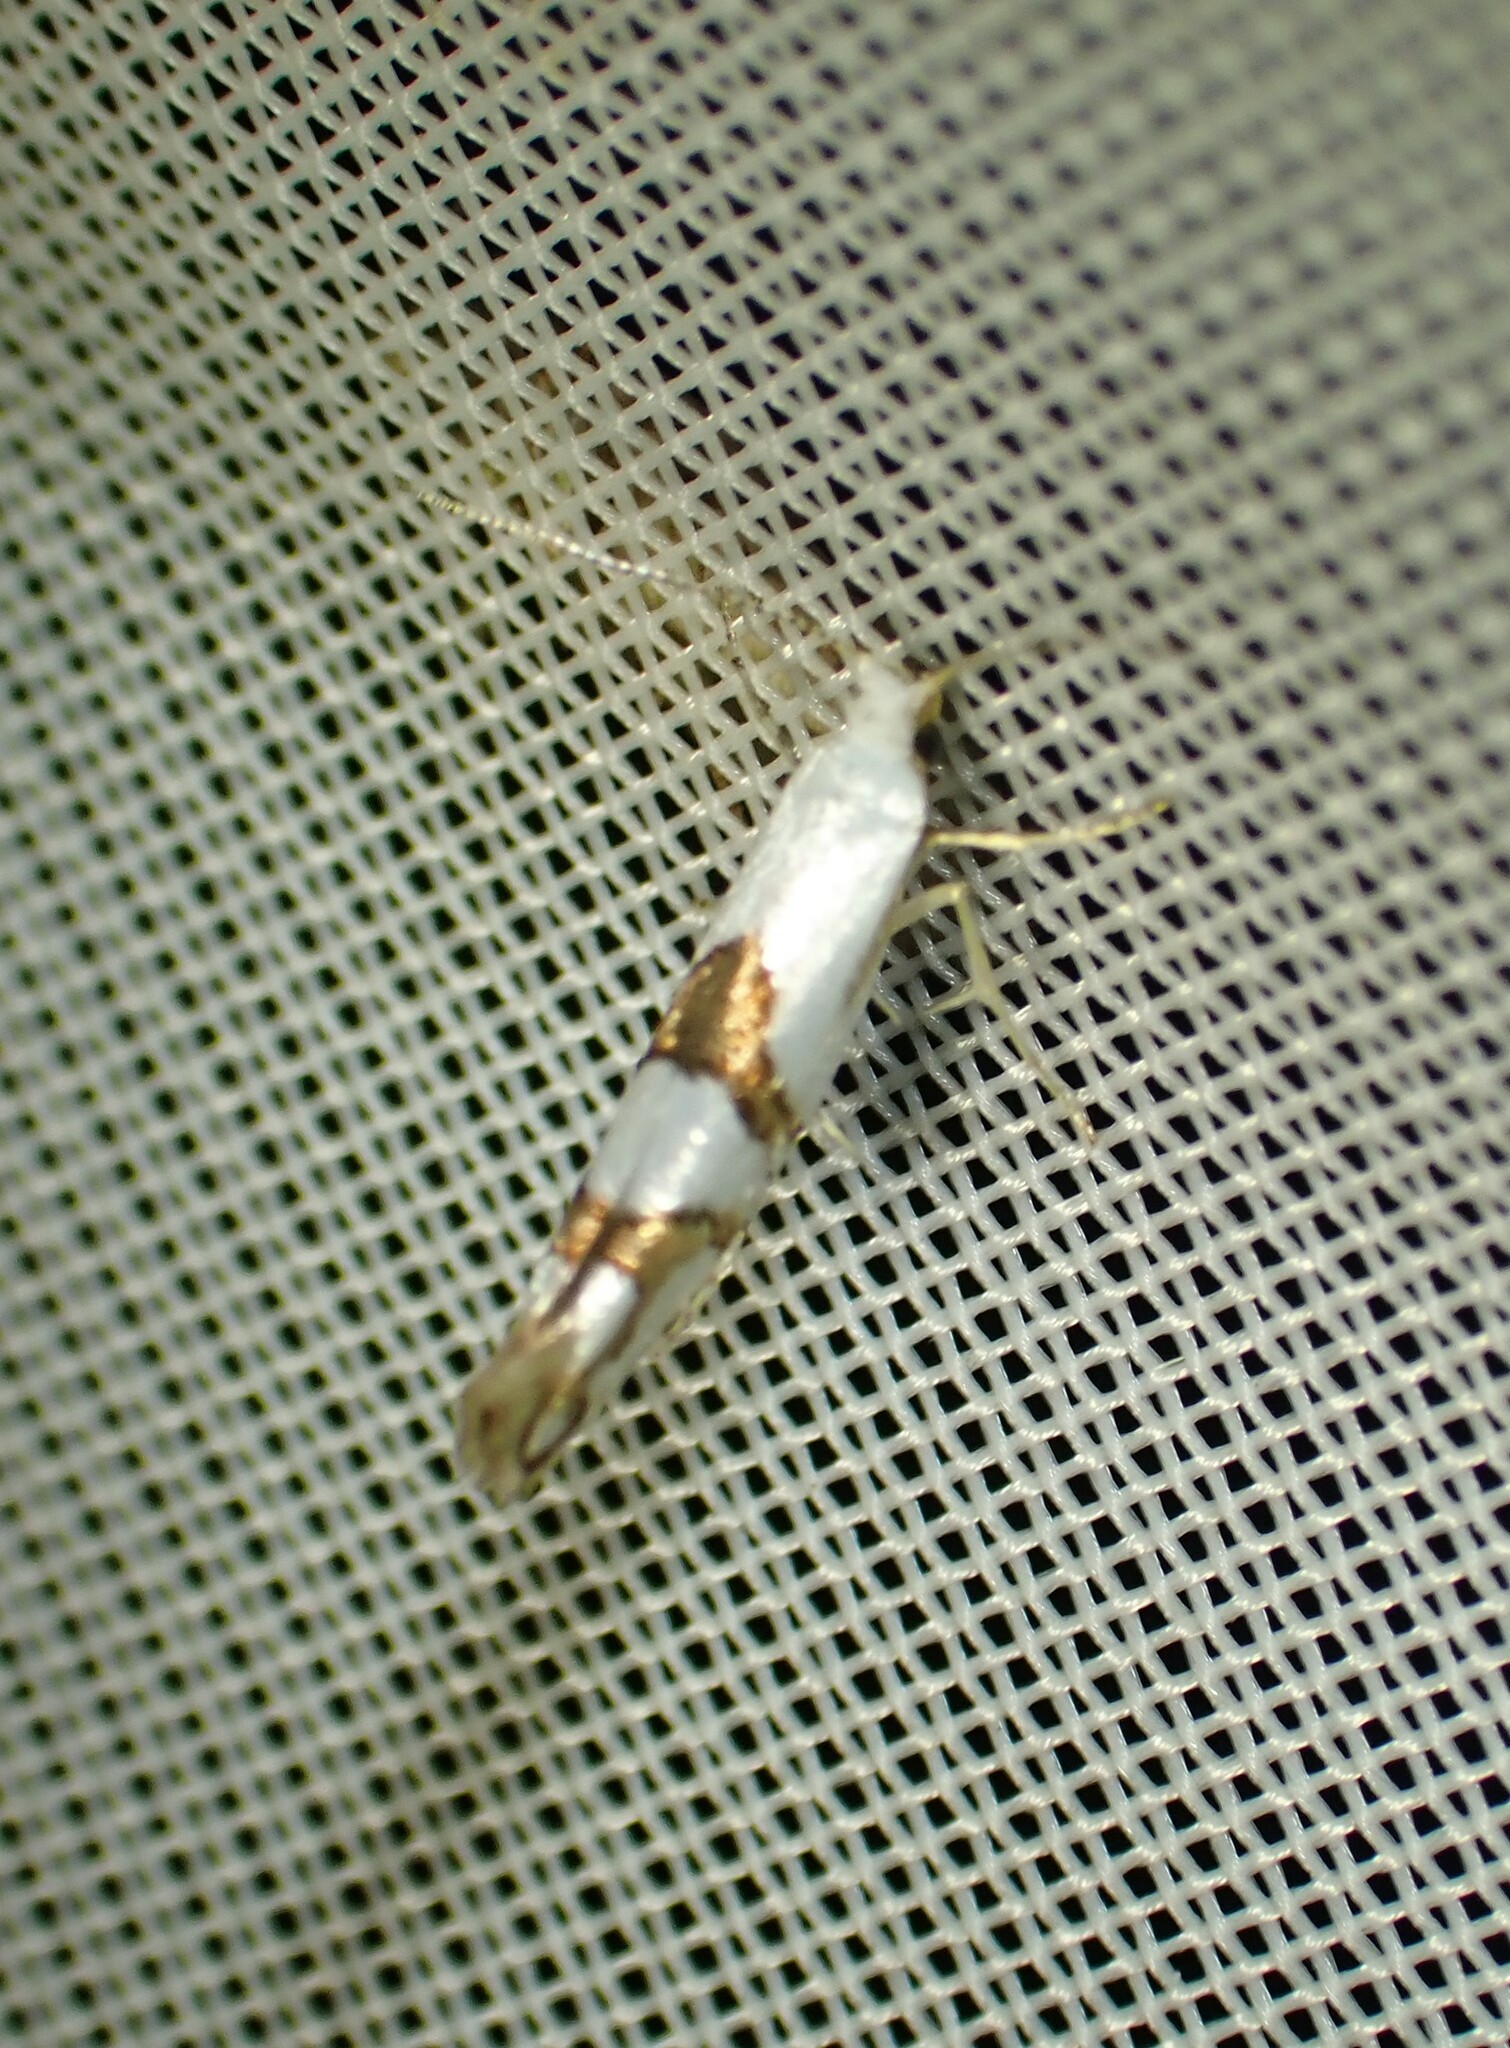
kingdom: Animalia
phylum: Arthropoda
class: Insecta
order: Lepidoptera
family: Argyresthiidae
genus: Argyresthia
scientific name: Argyresthia oreasella
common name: Cherry shoot borer moth
